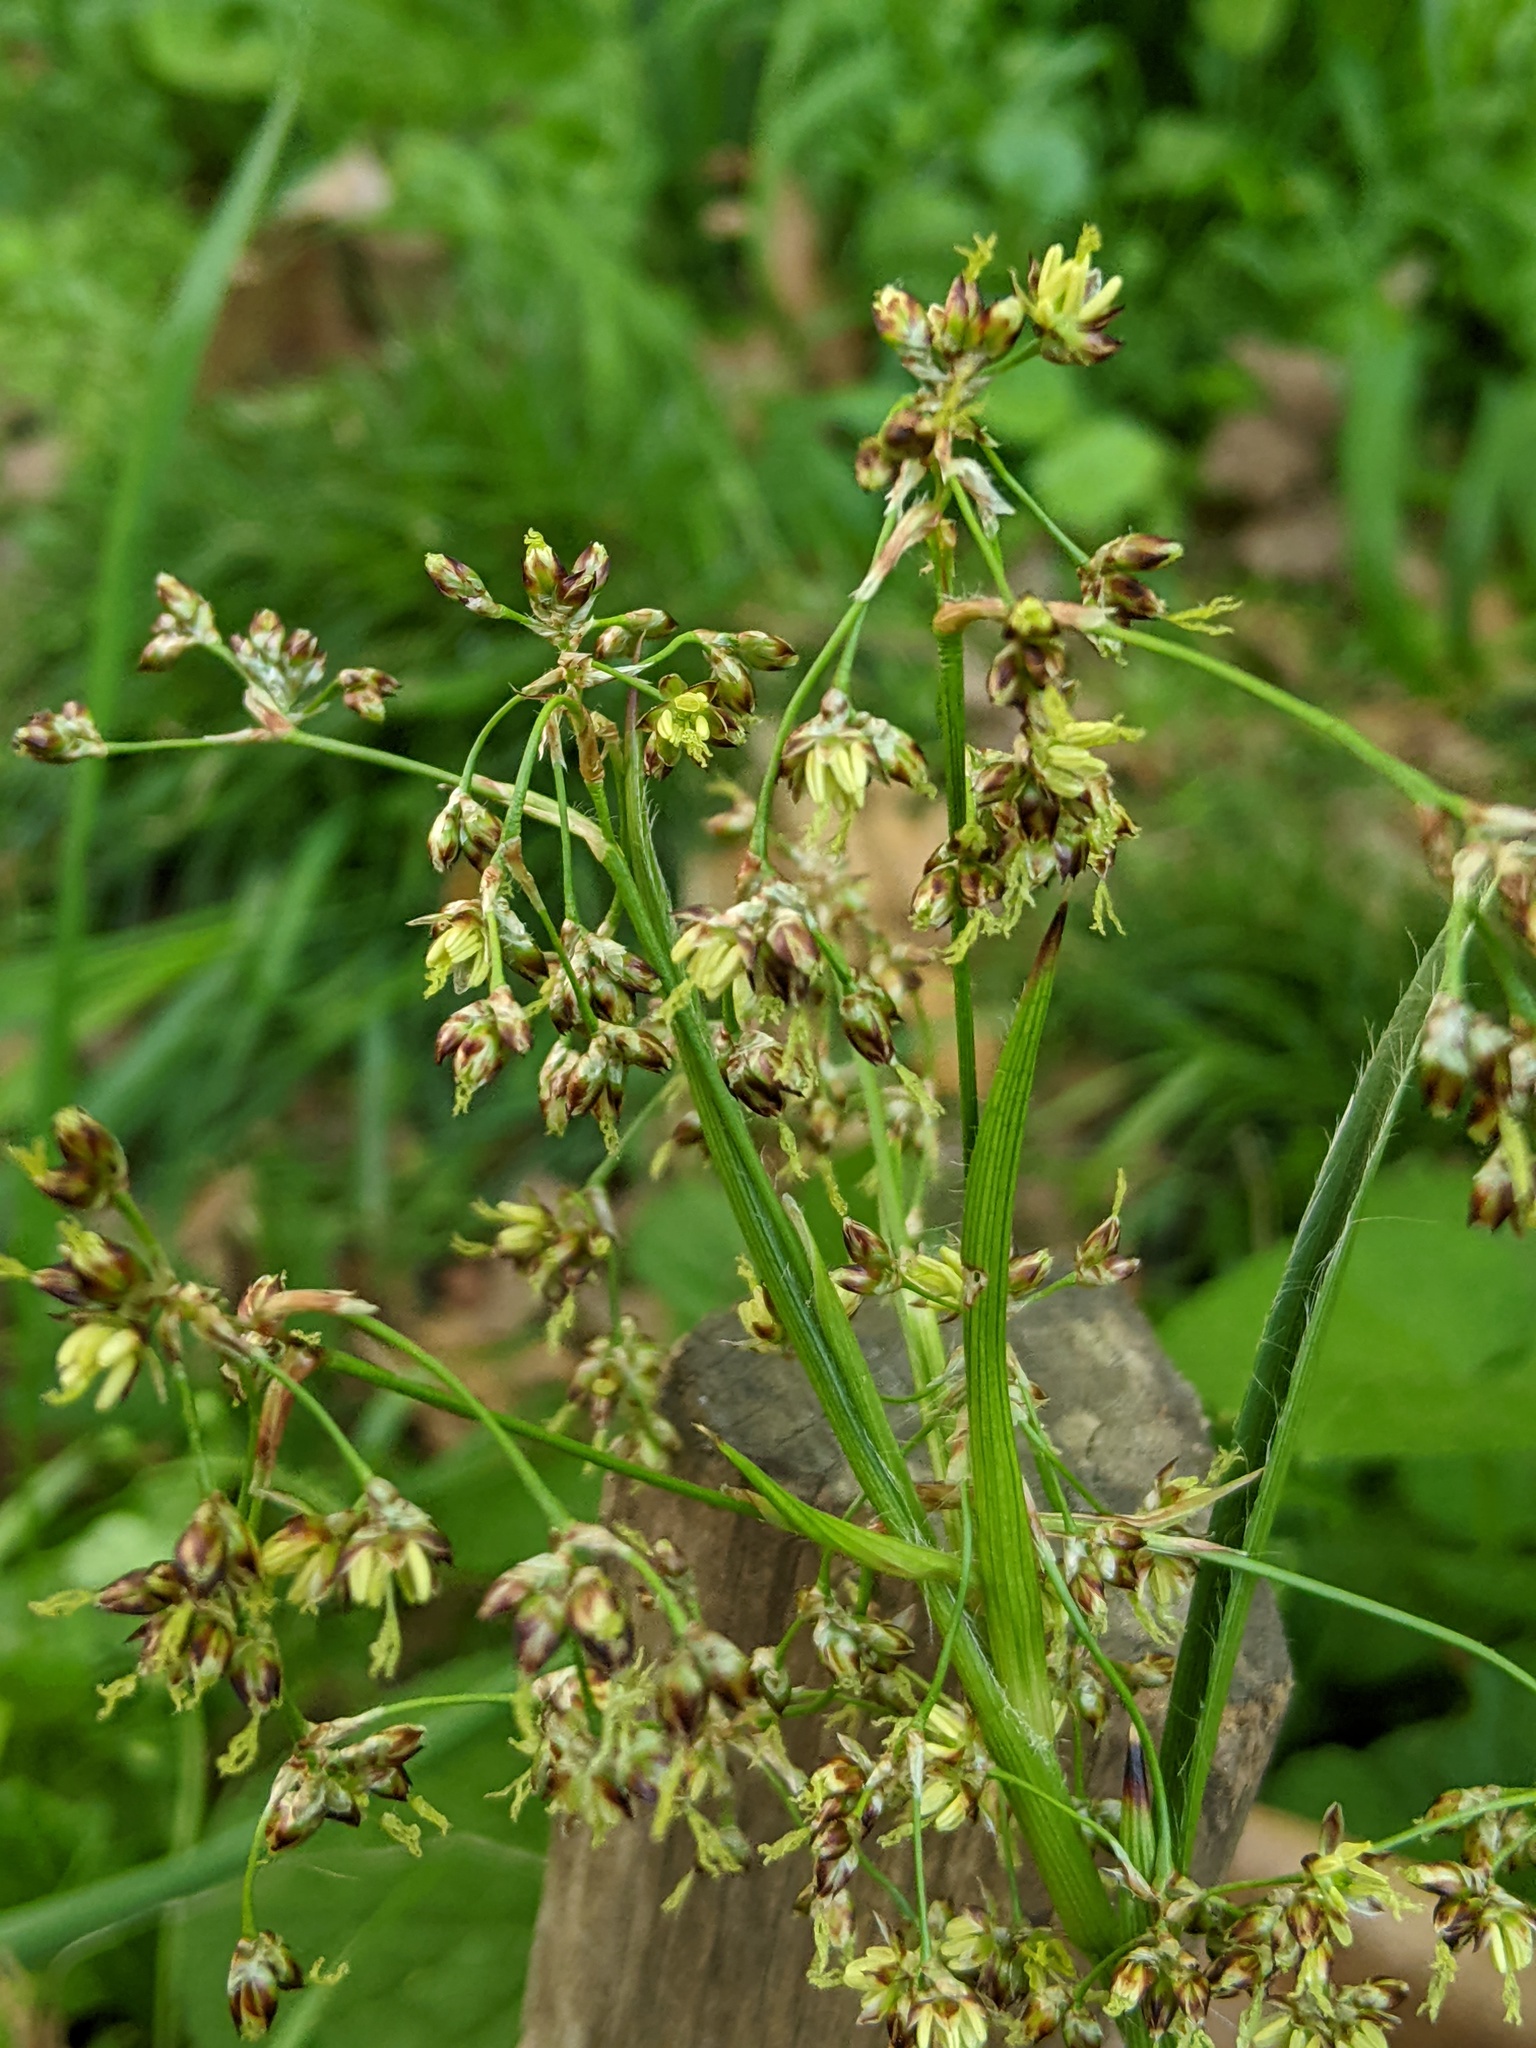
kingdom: Plantae
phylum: Tracheophyta
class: Liliopsida
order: Poales
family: Juncaceae
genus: Luzula
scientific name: Luzula sylvatica
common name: Great wood-rush
